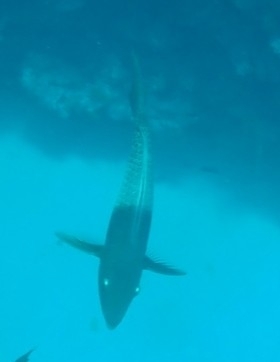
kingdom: Animalia
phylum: Chordata
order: Perciformes
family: Scaridae
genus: Scarus
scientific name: Scarus rubroviolaceus
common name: Ember parrotfish
